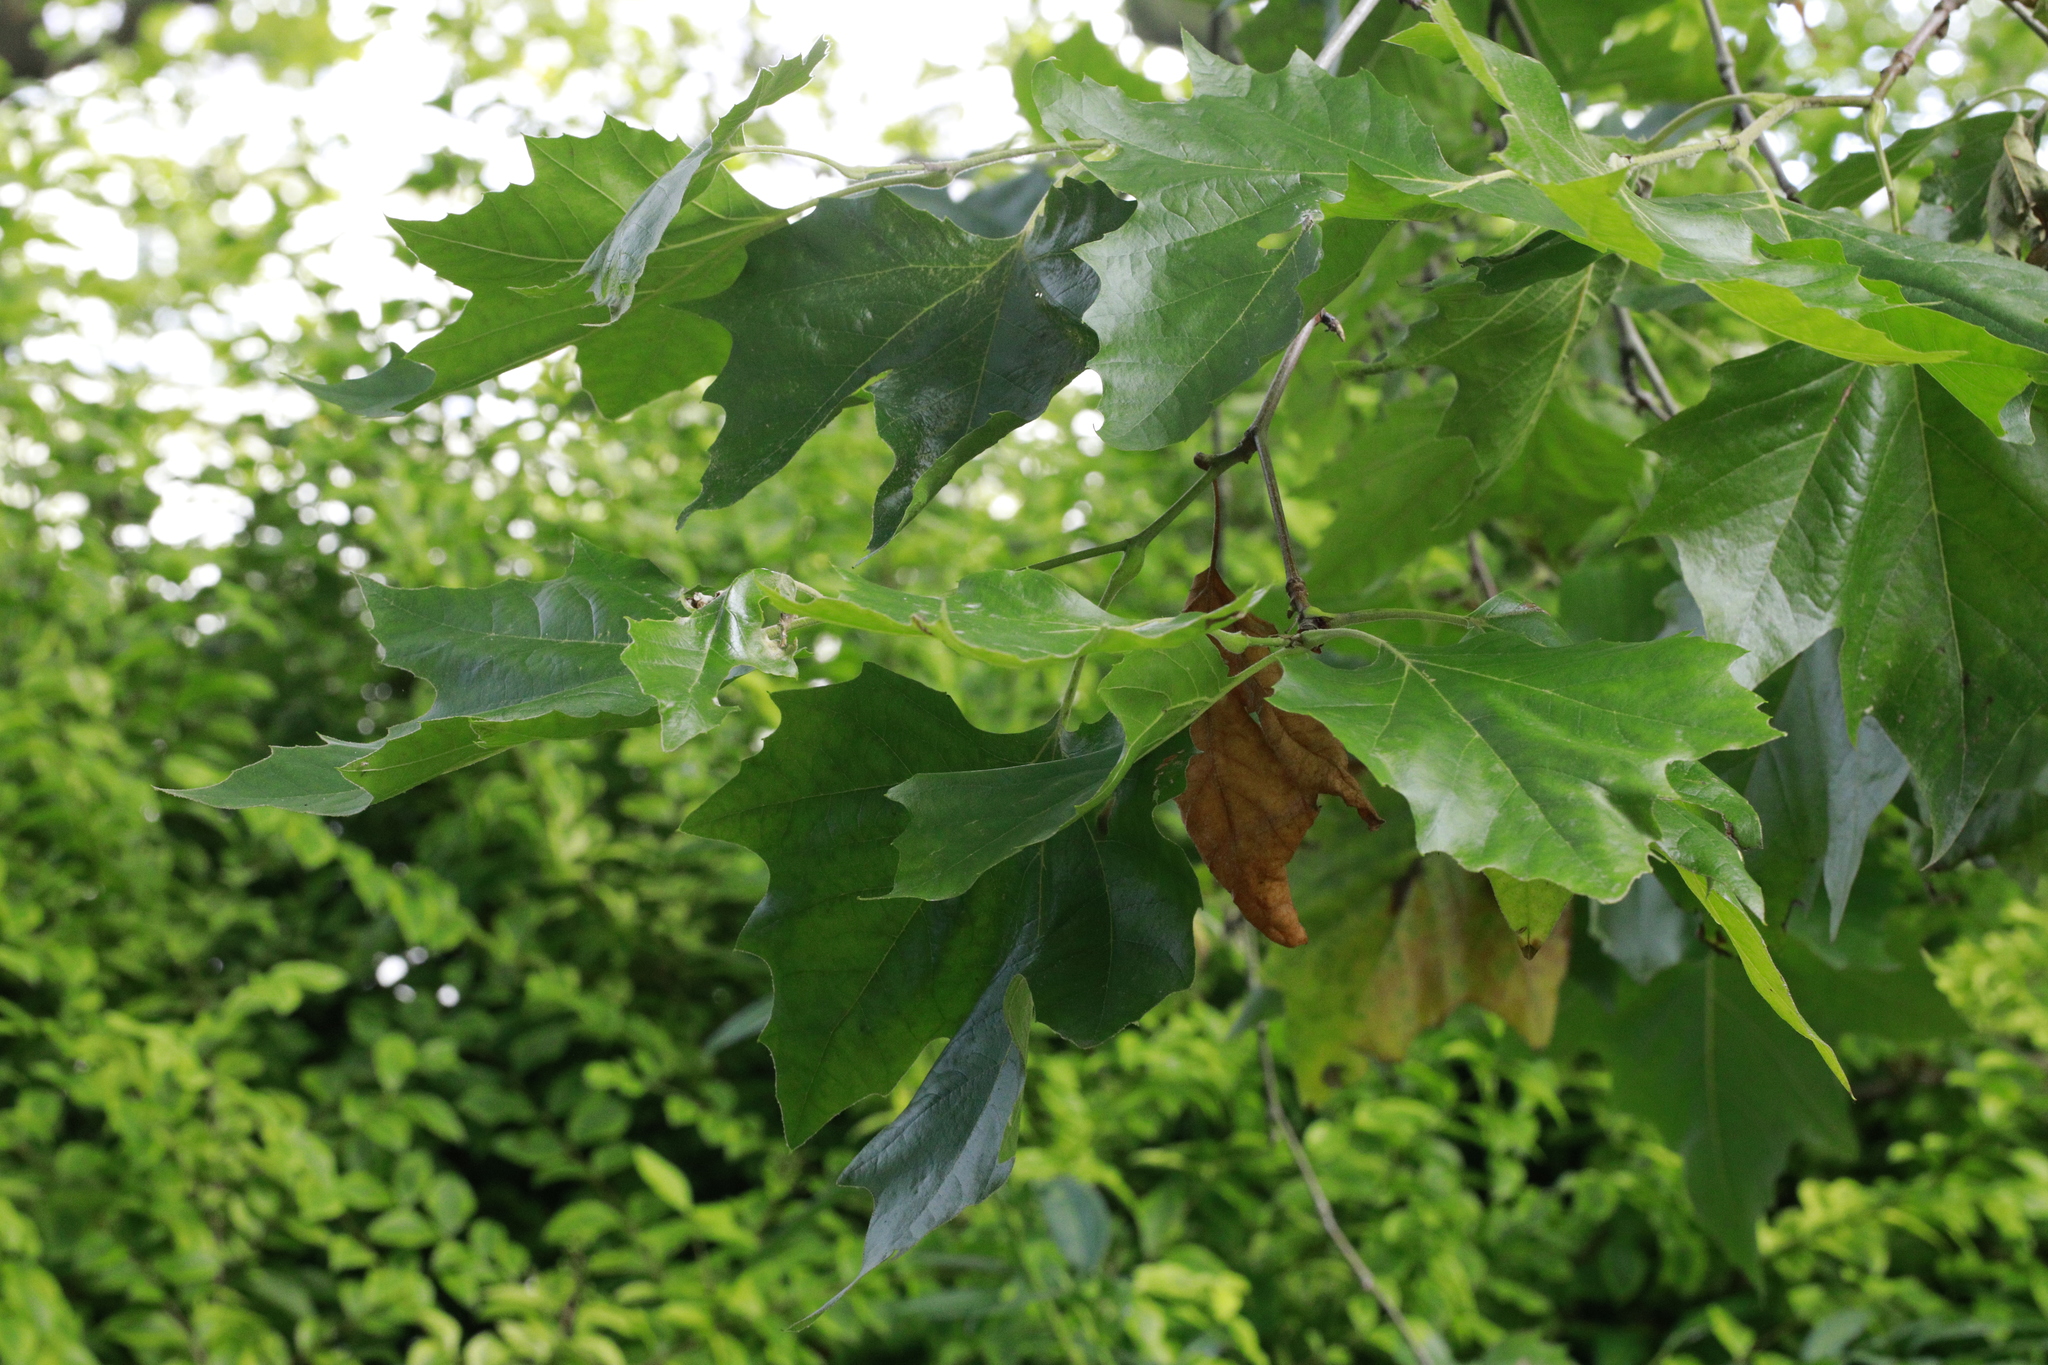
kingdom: Plantae
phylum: Tracheophyta
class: Magnoliopsida
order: Proteales
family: Platanaceae
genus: Platanus
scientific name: Platanus hispanica
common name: London plane
